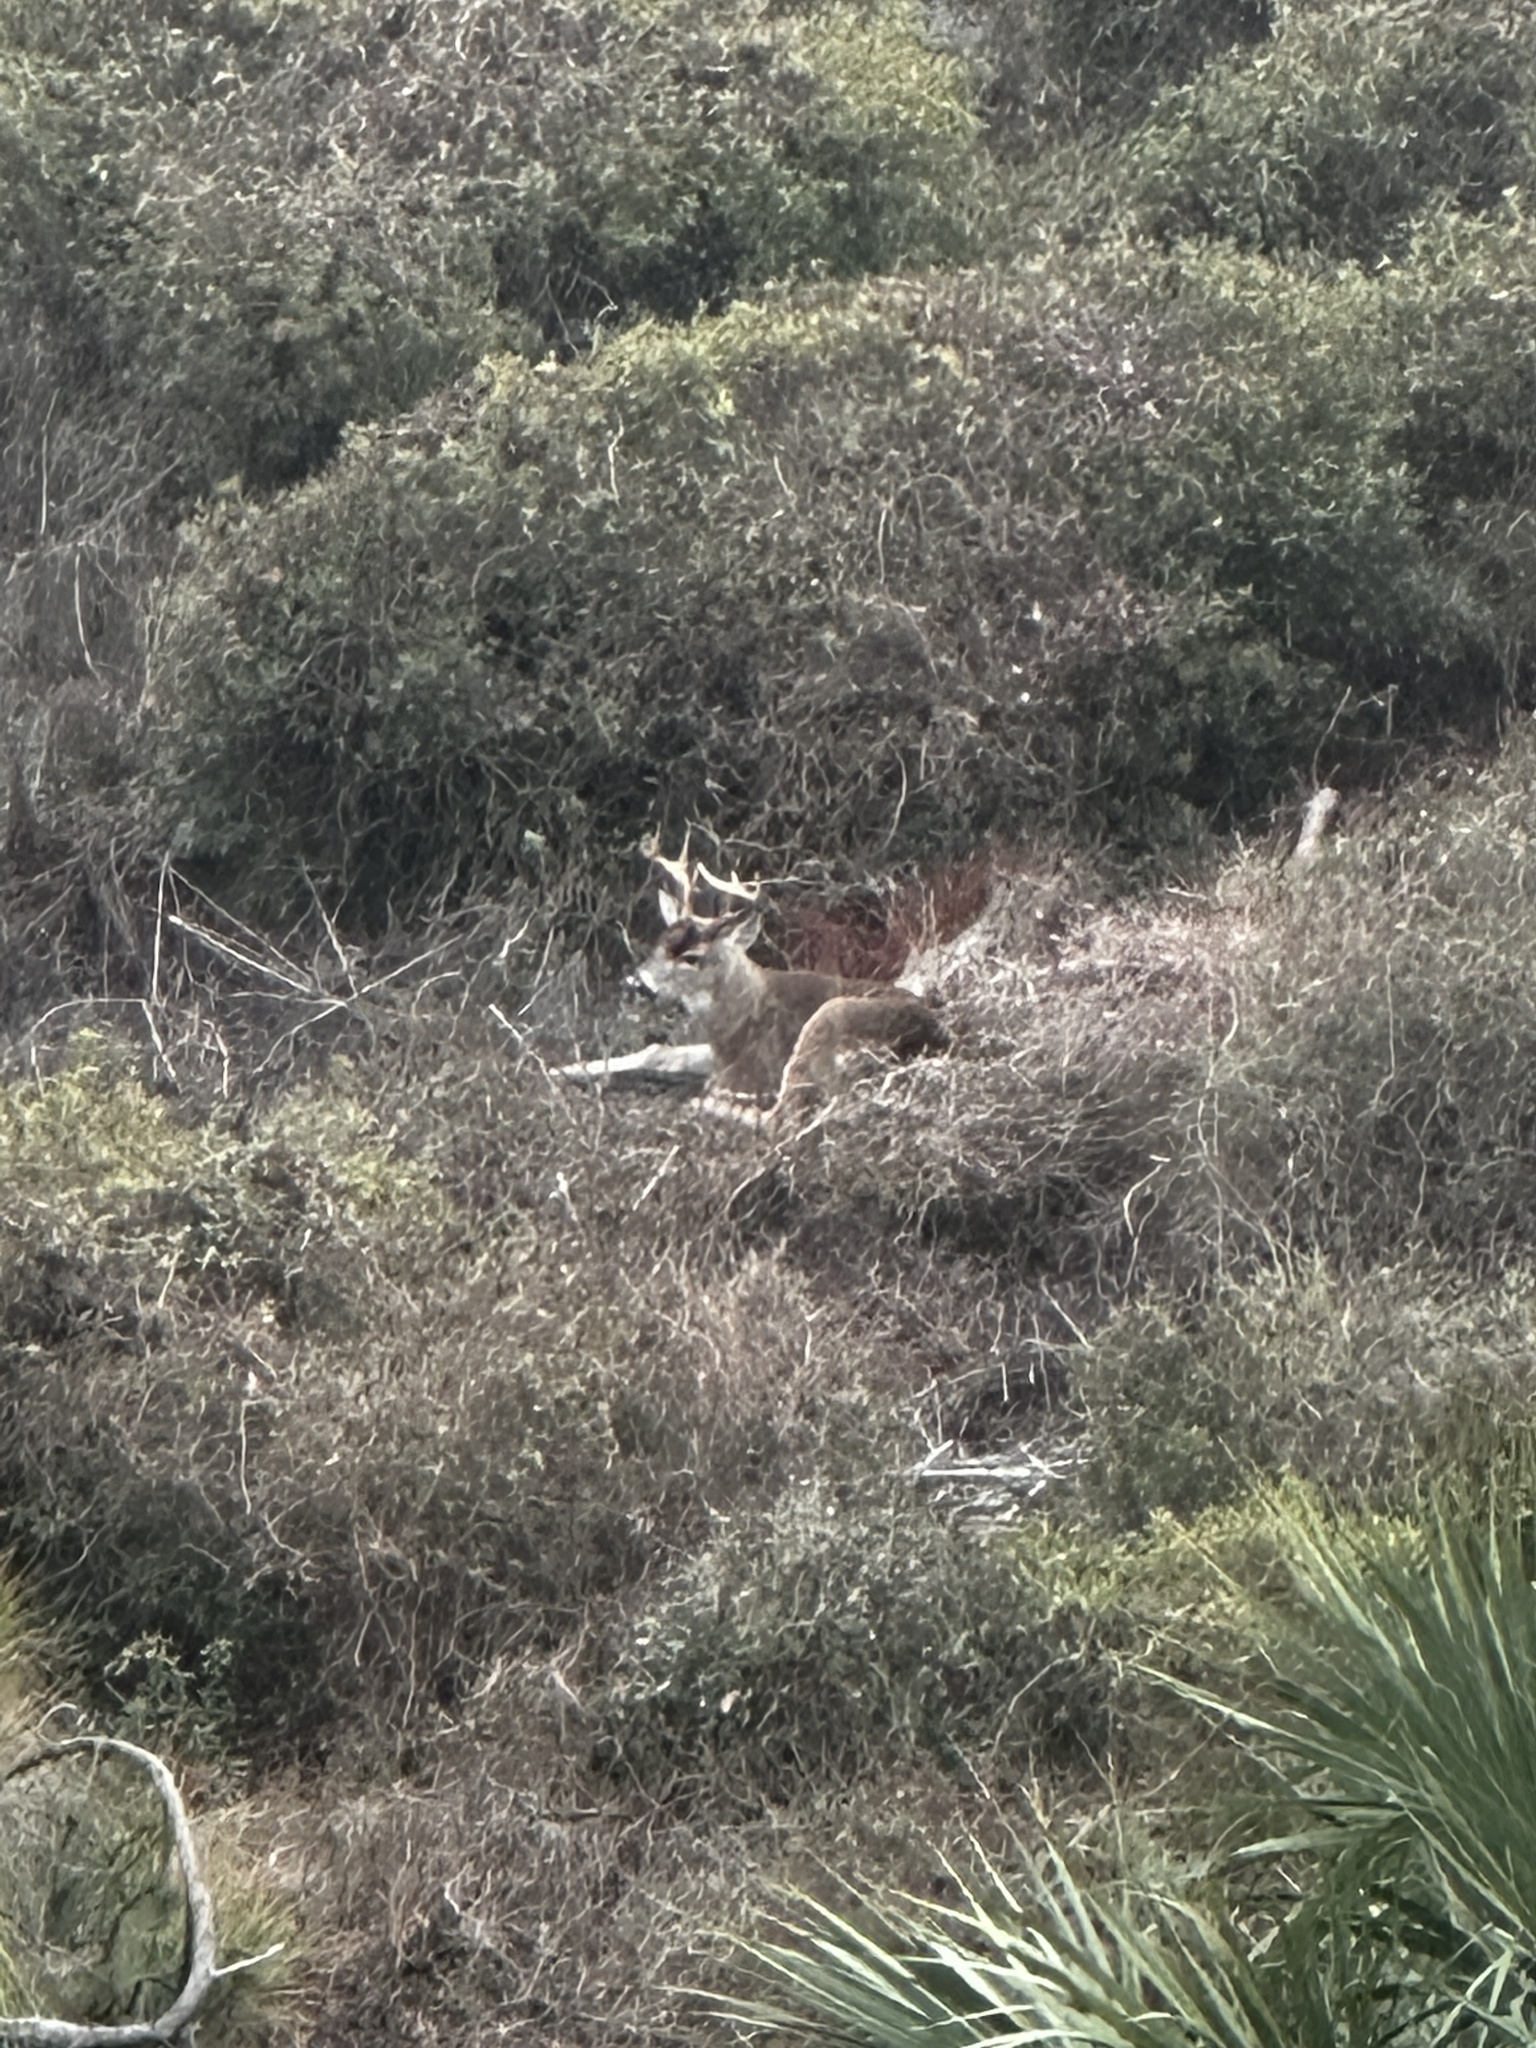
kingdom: Animalia
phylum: Chordata
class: Mammalia
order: Artiodactyla
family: Cervidae
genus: Odocoileus
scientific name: Odocoileus virginianus
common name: White-tailed deer
